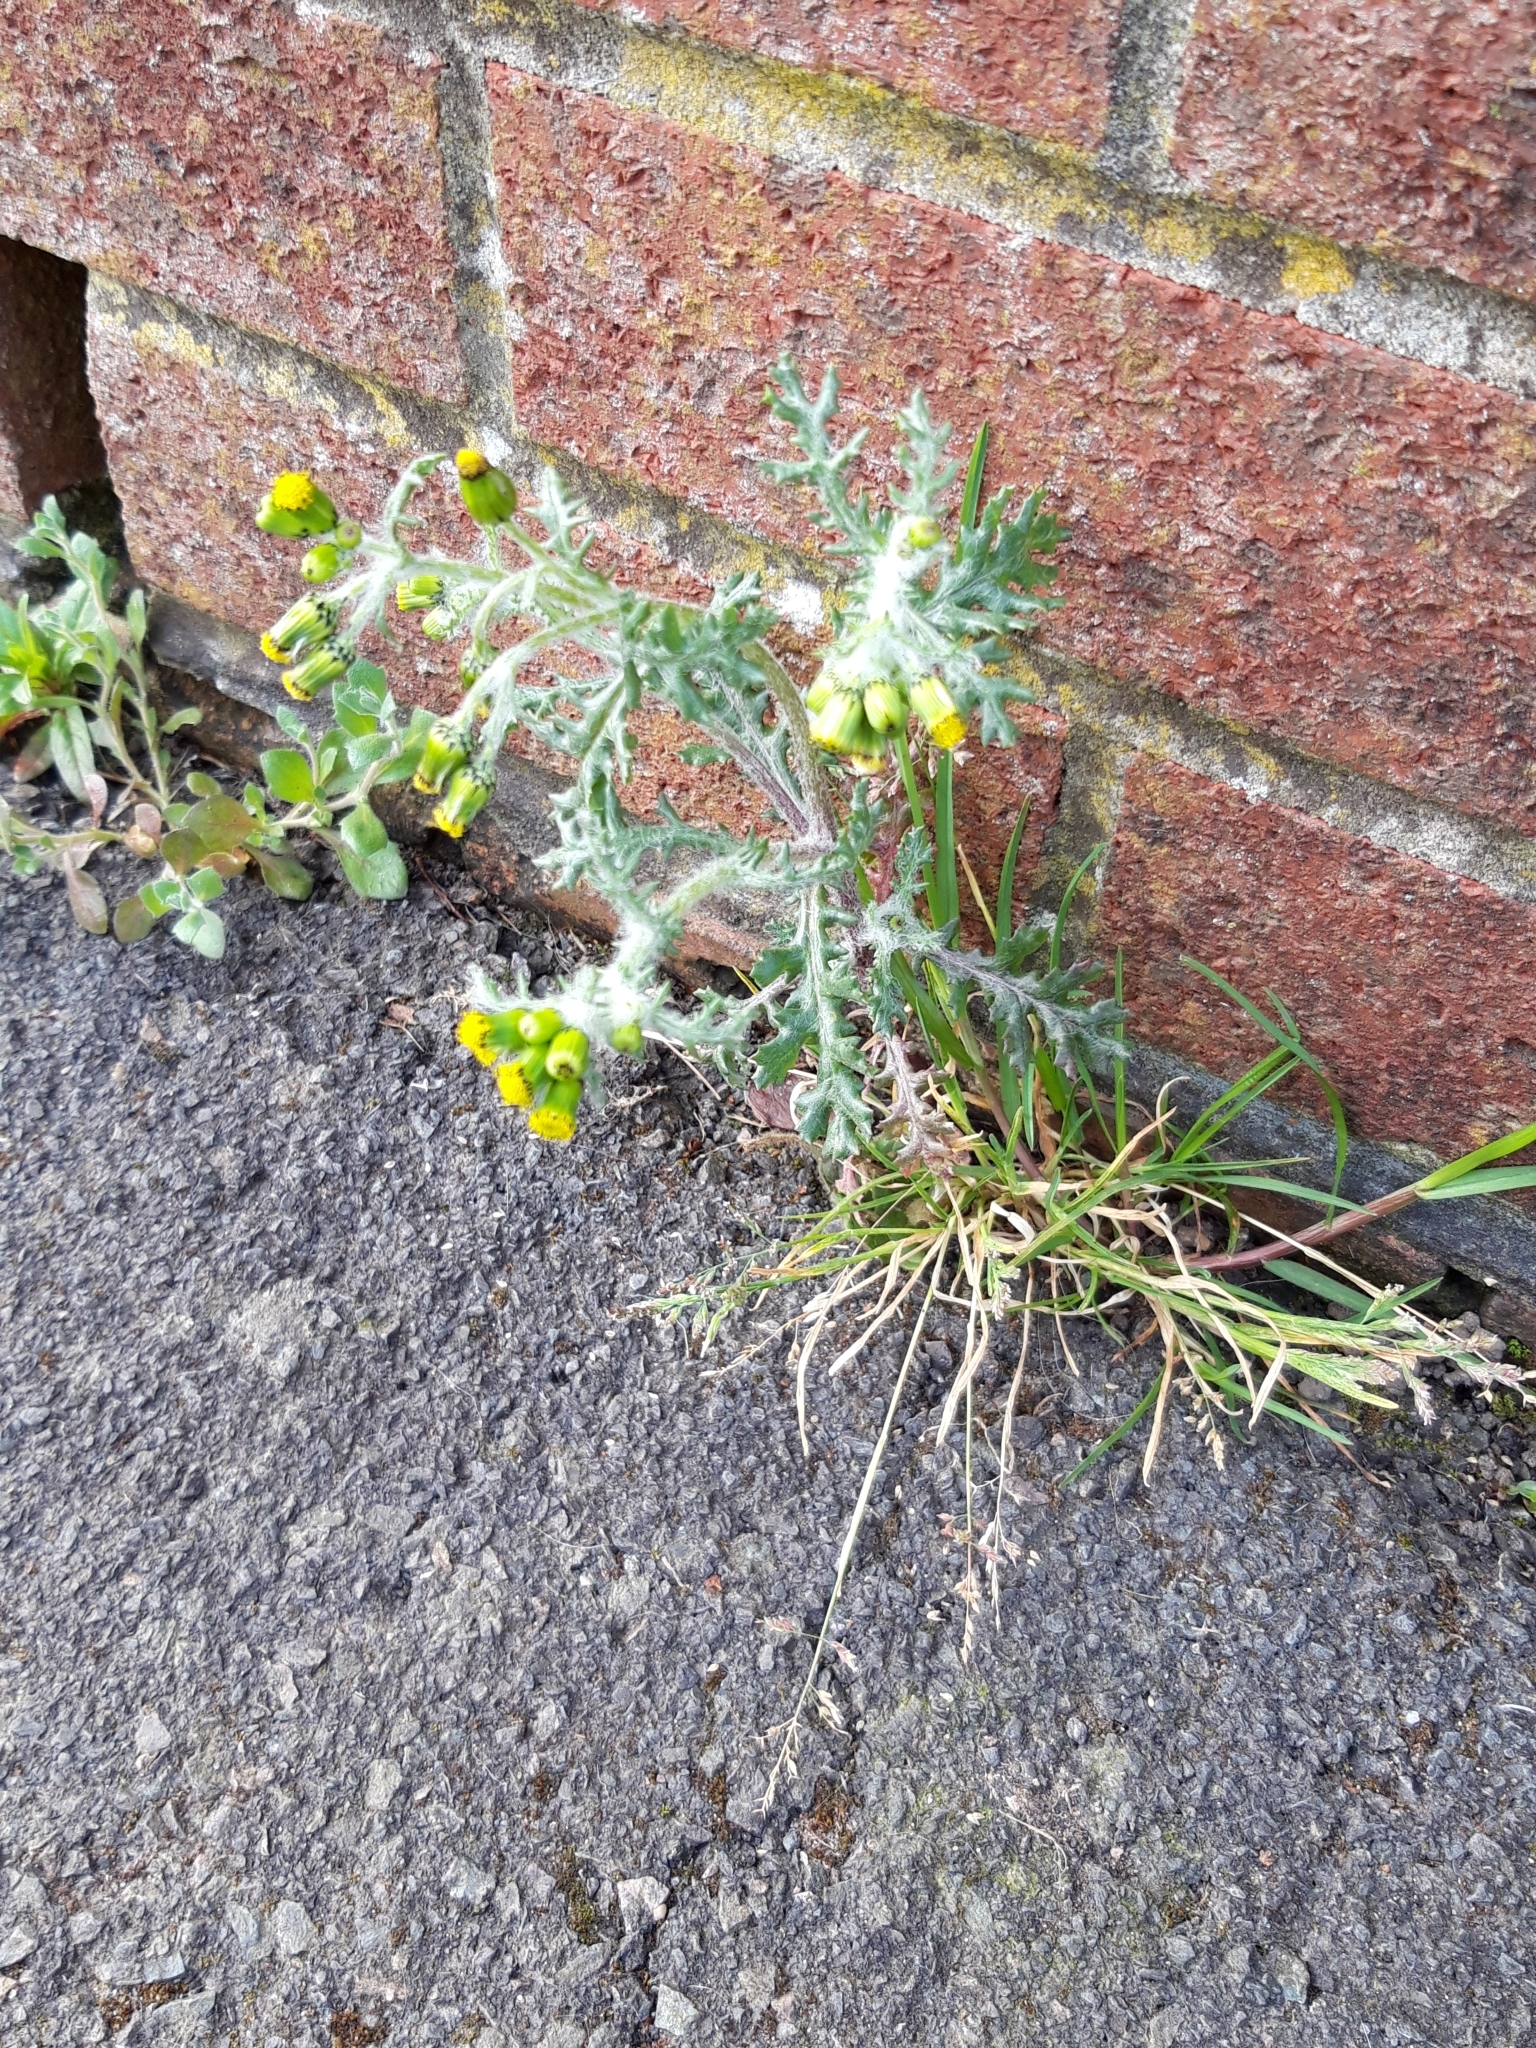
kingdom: Plantae
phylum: Tracheophyta
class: Magnoliopsida
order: Asterales
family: Asteraceae
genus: Senecio
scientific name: Senecio vulgaris
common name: Old-man-in-the-spring
